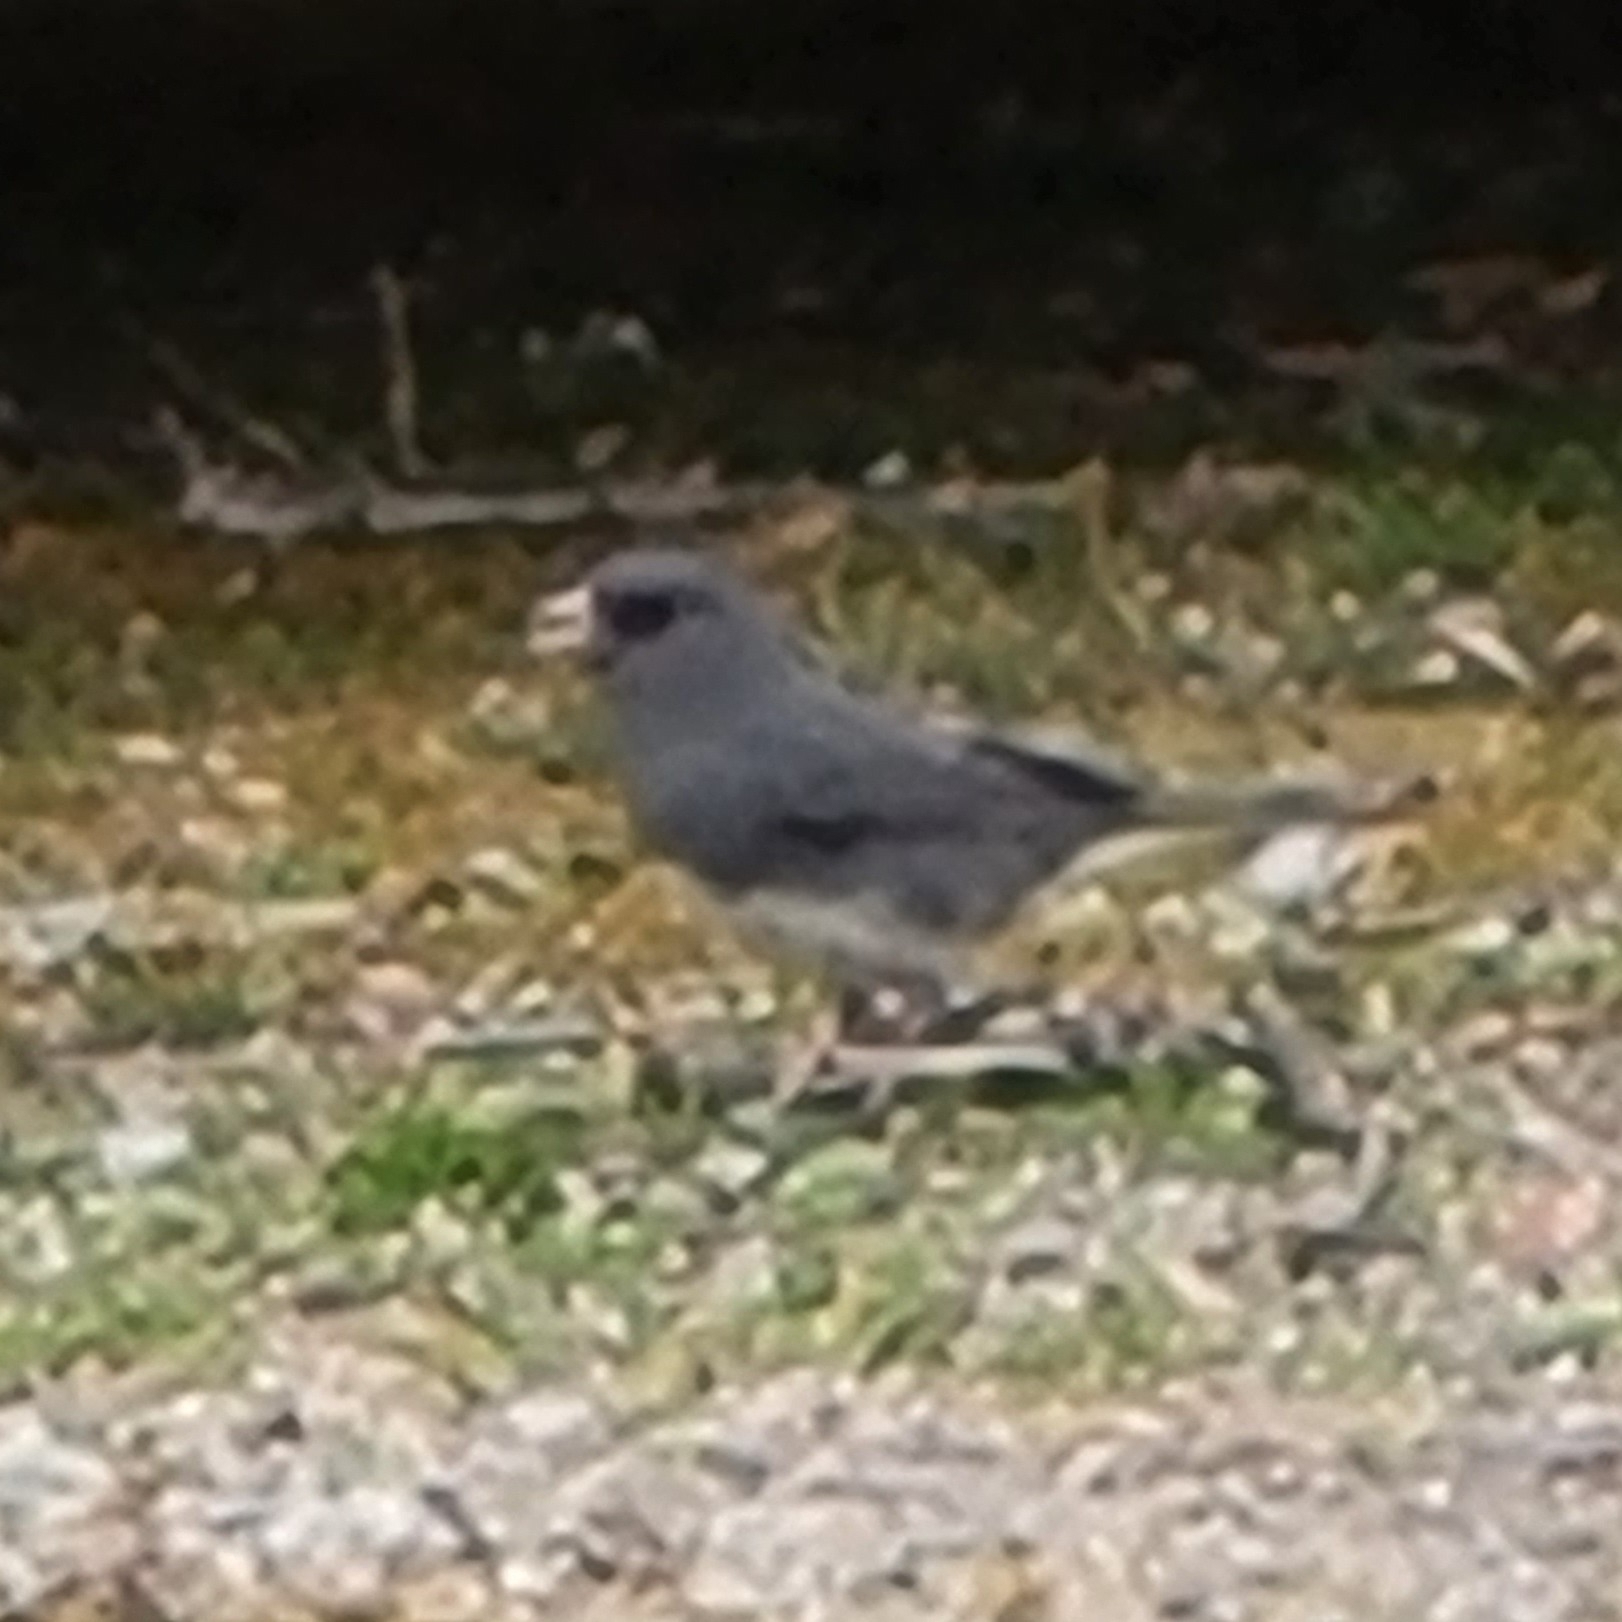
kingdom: Animalia
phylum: Chordata
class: Aves
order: Passeriformes
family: Passerellidae
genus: Junco
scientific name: Junco hyemalis
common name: Dark-eyed junco
